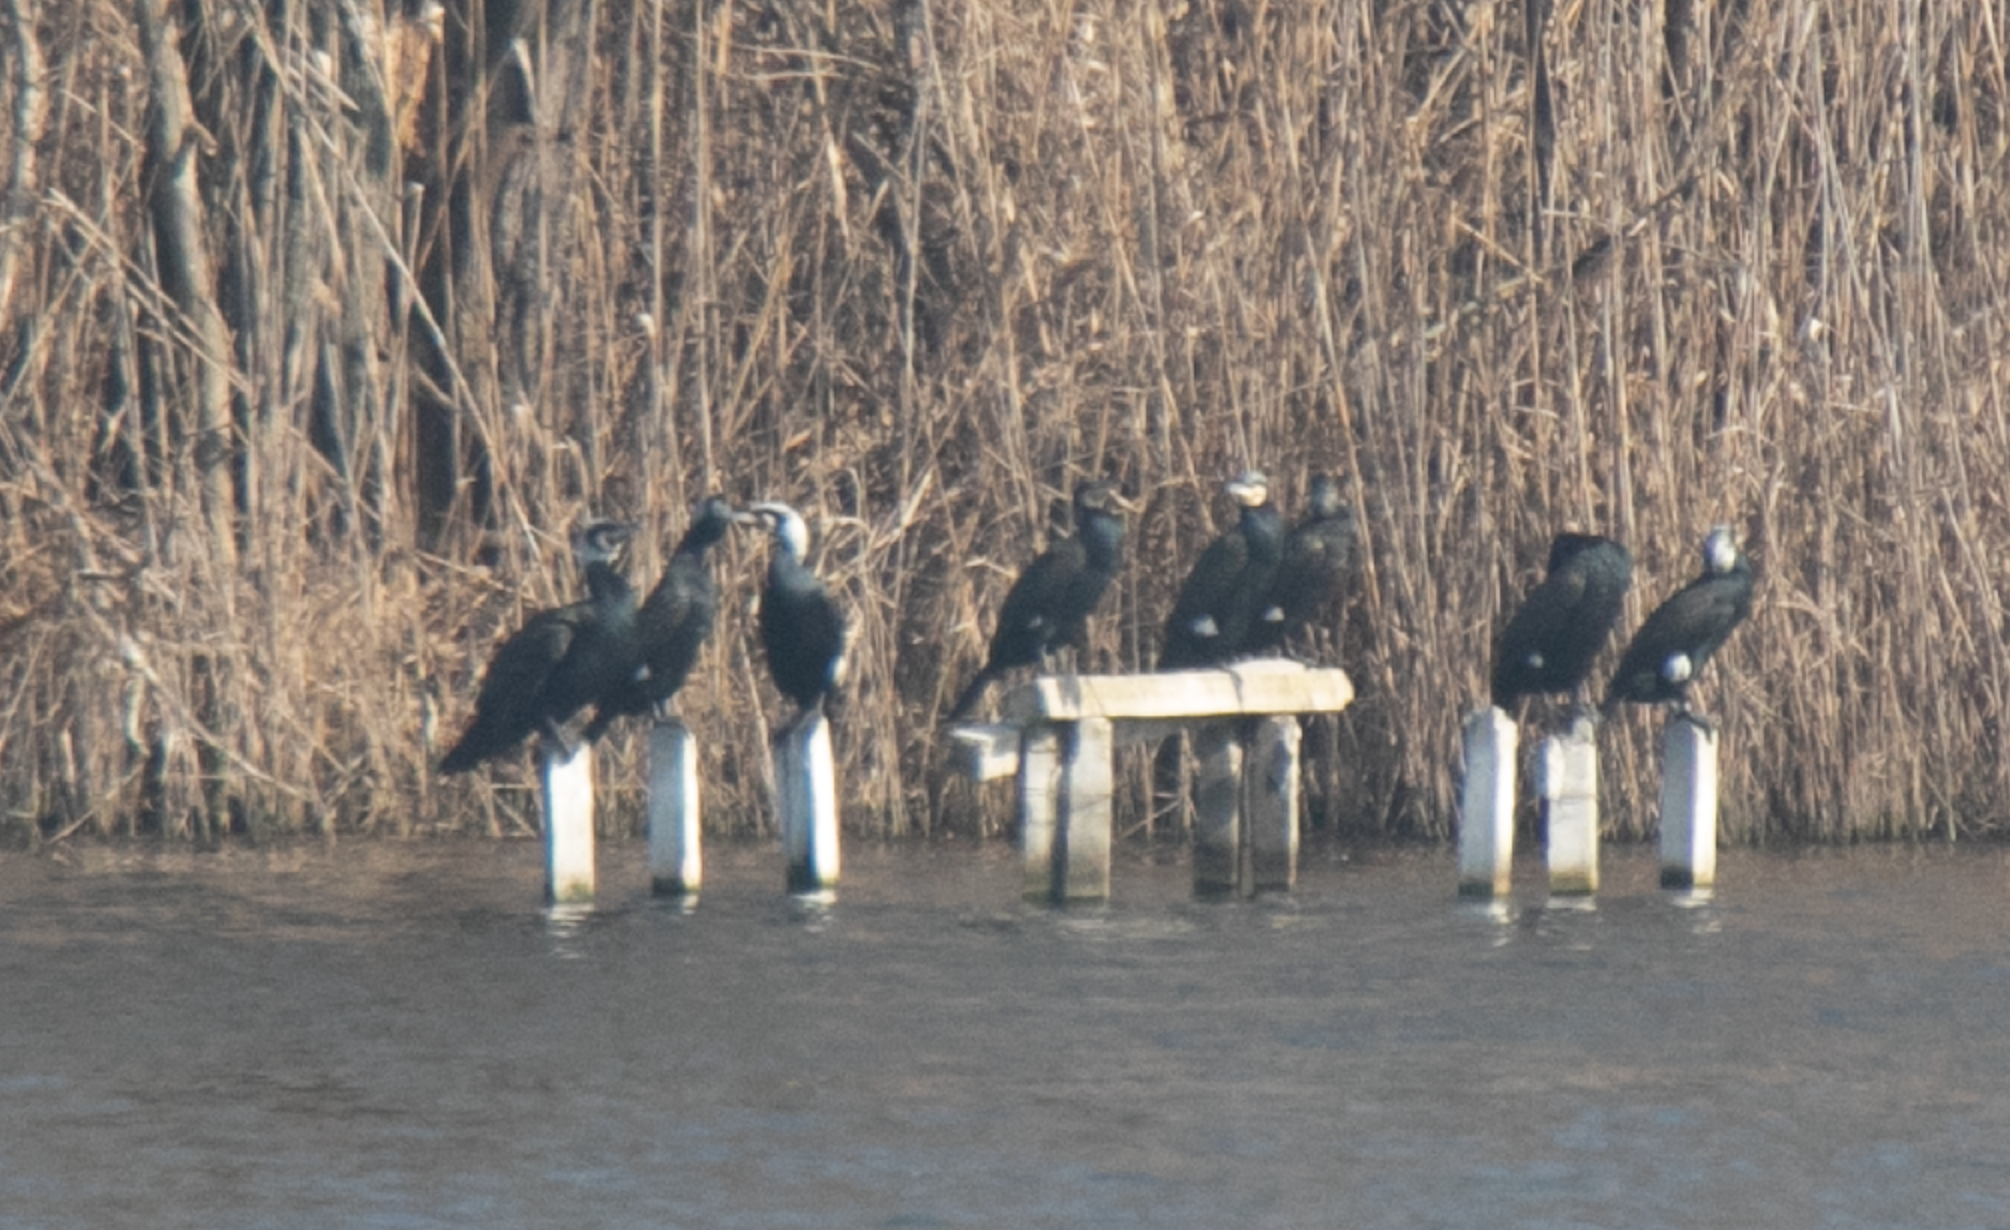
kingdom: Animalia
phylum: Chordata
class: Aves
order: Suliformes
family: Phalacrocoracidae
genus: Phalacrocorax
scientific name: Phalacrocorax carbo
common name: Great cormorant
